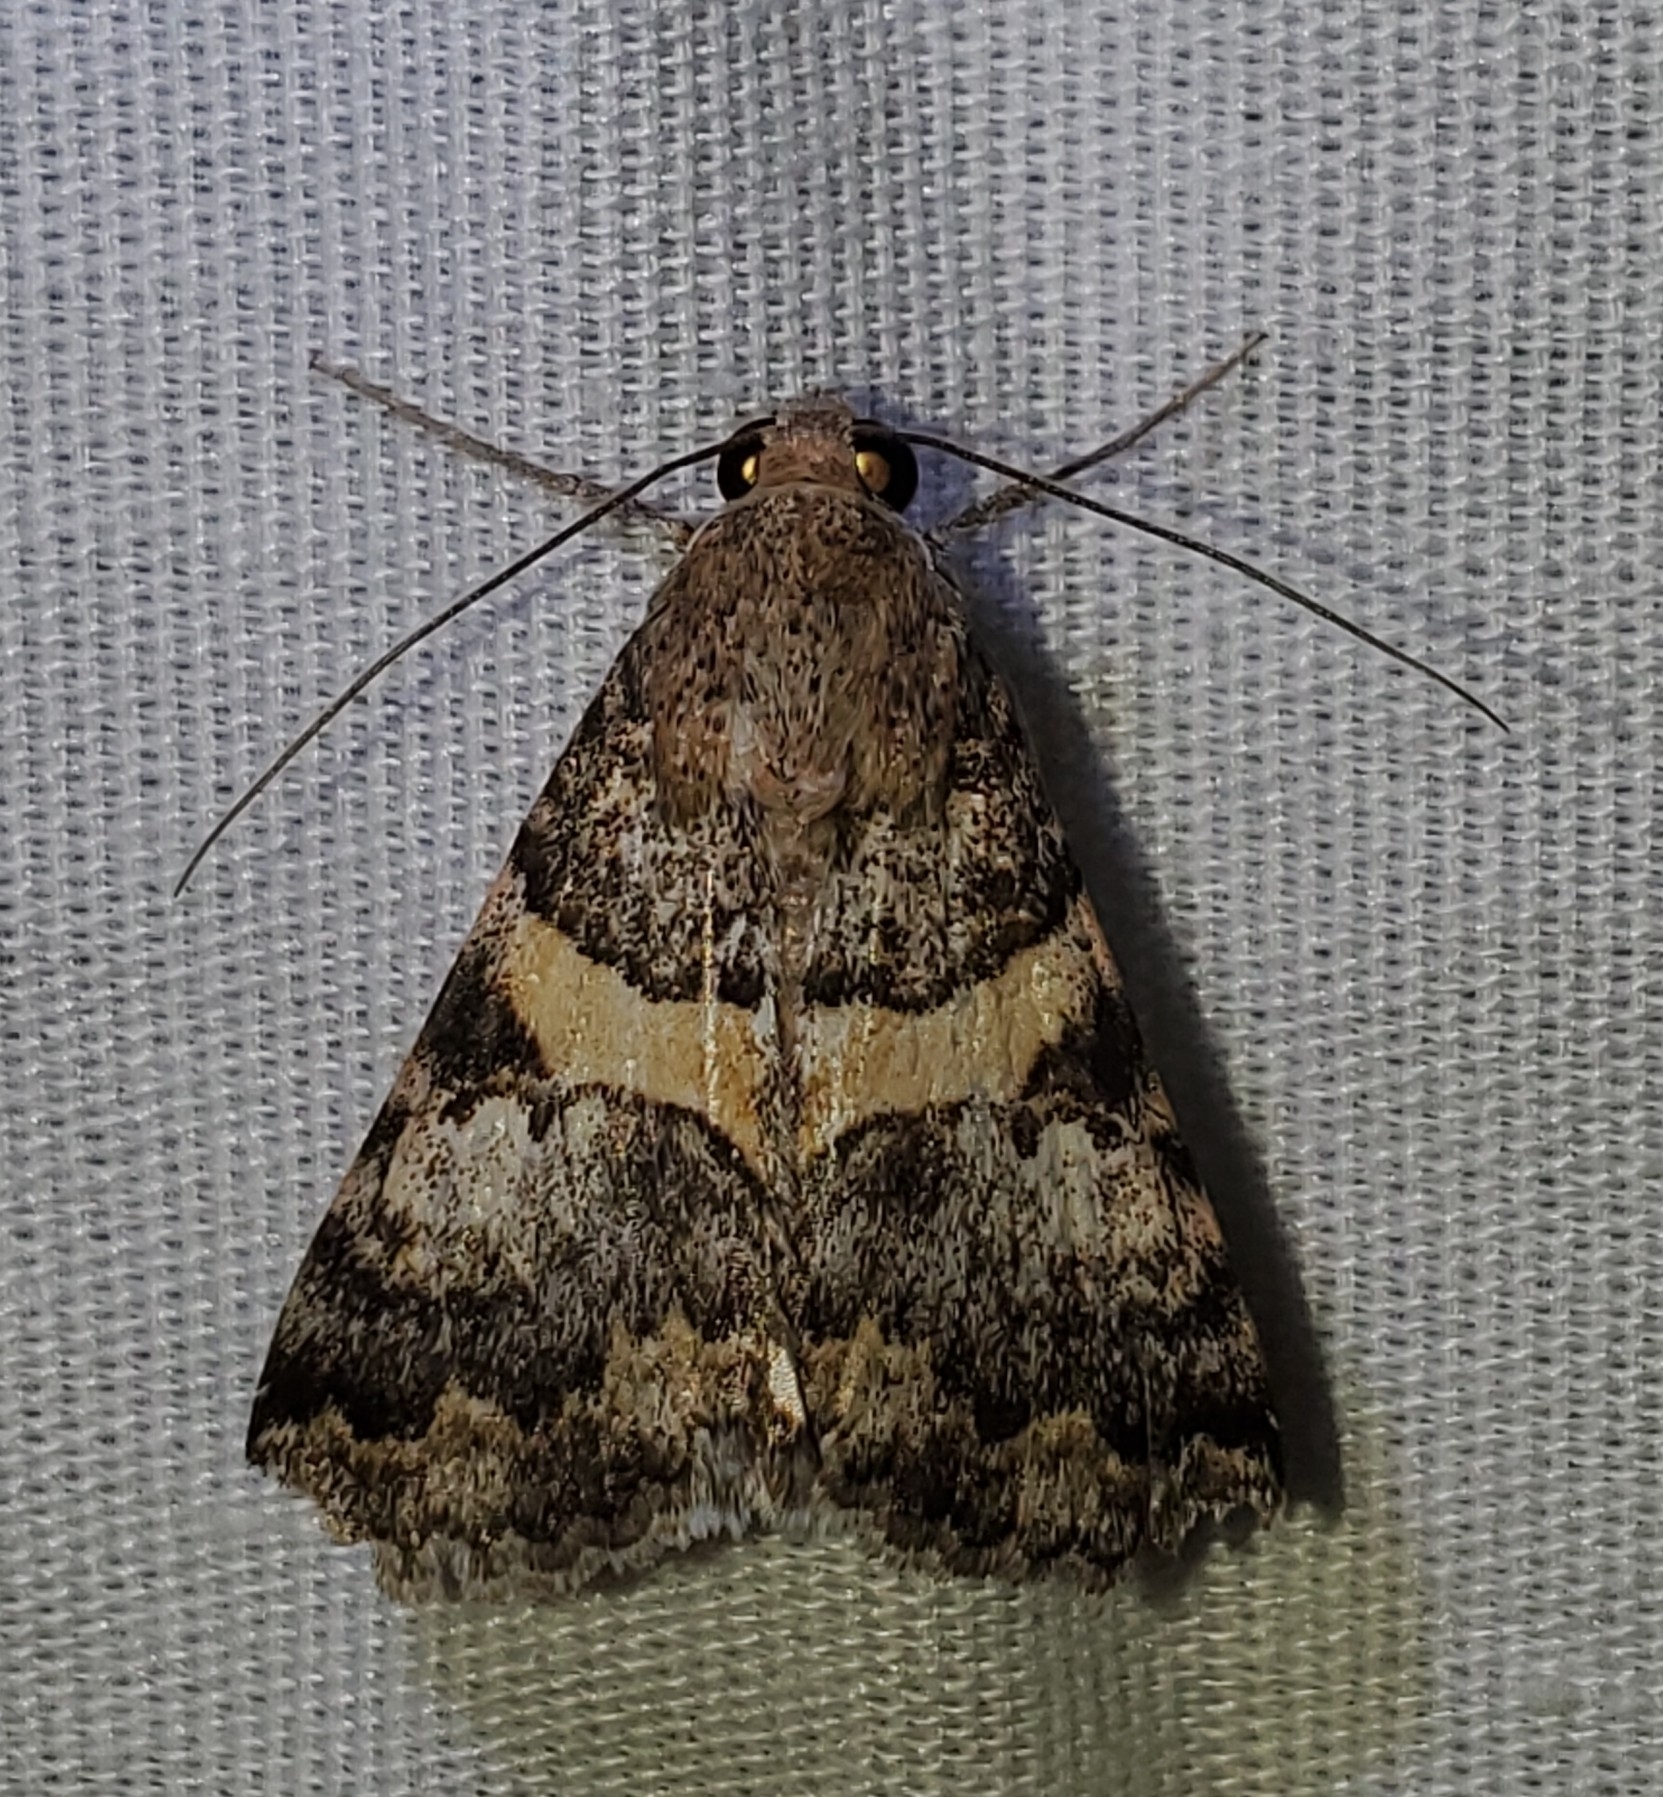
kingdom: Animalia
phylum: Arthropoda
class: Insecta
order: Lepidoptera
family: Erebidae
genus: Melipotis
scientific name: Melipotis jucunda
